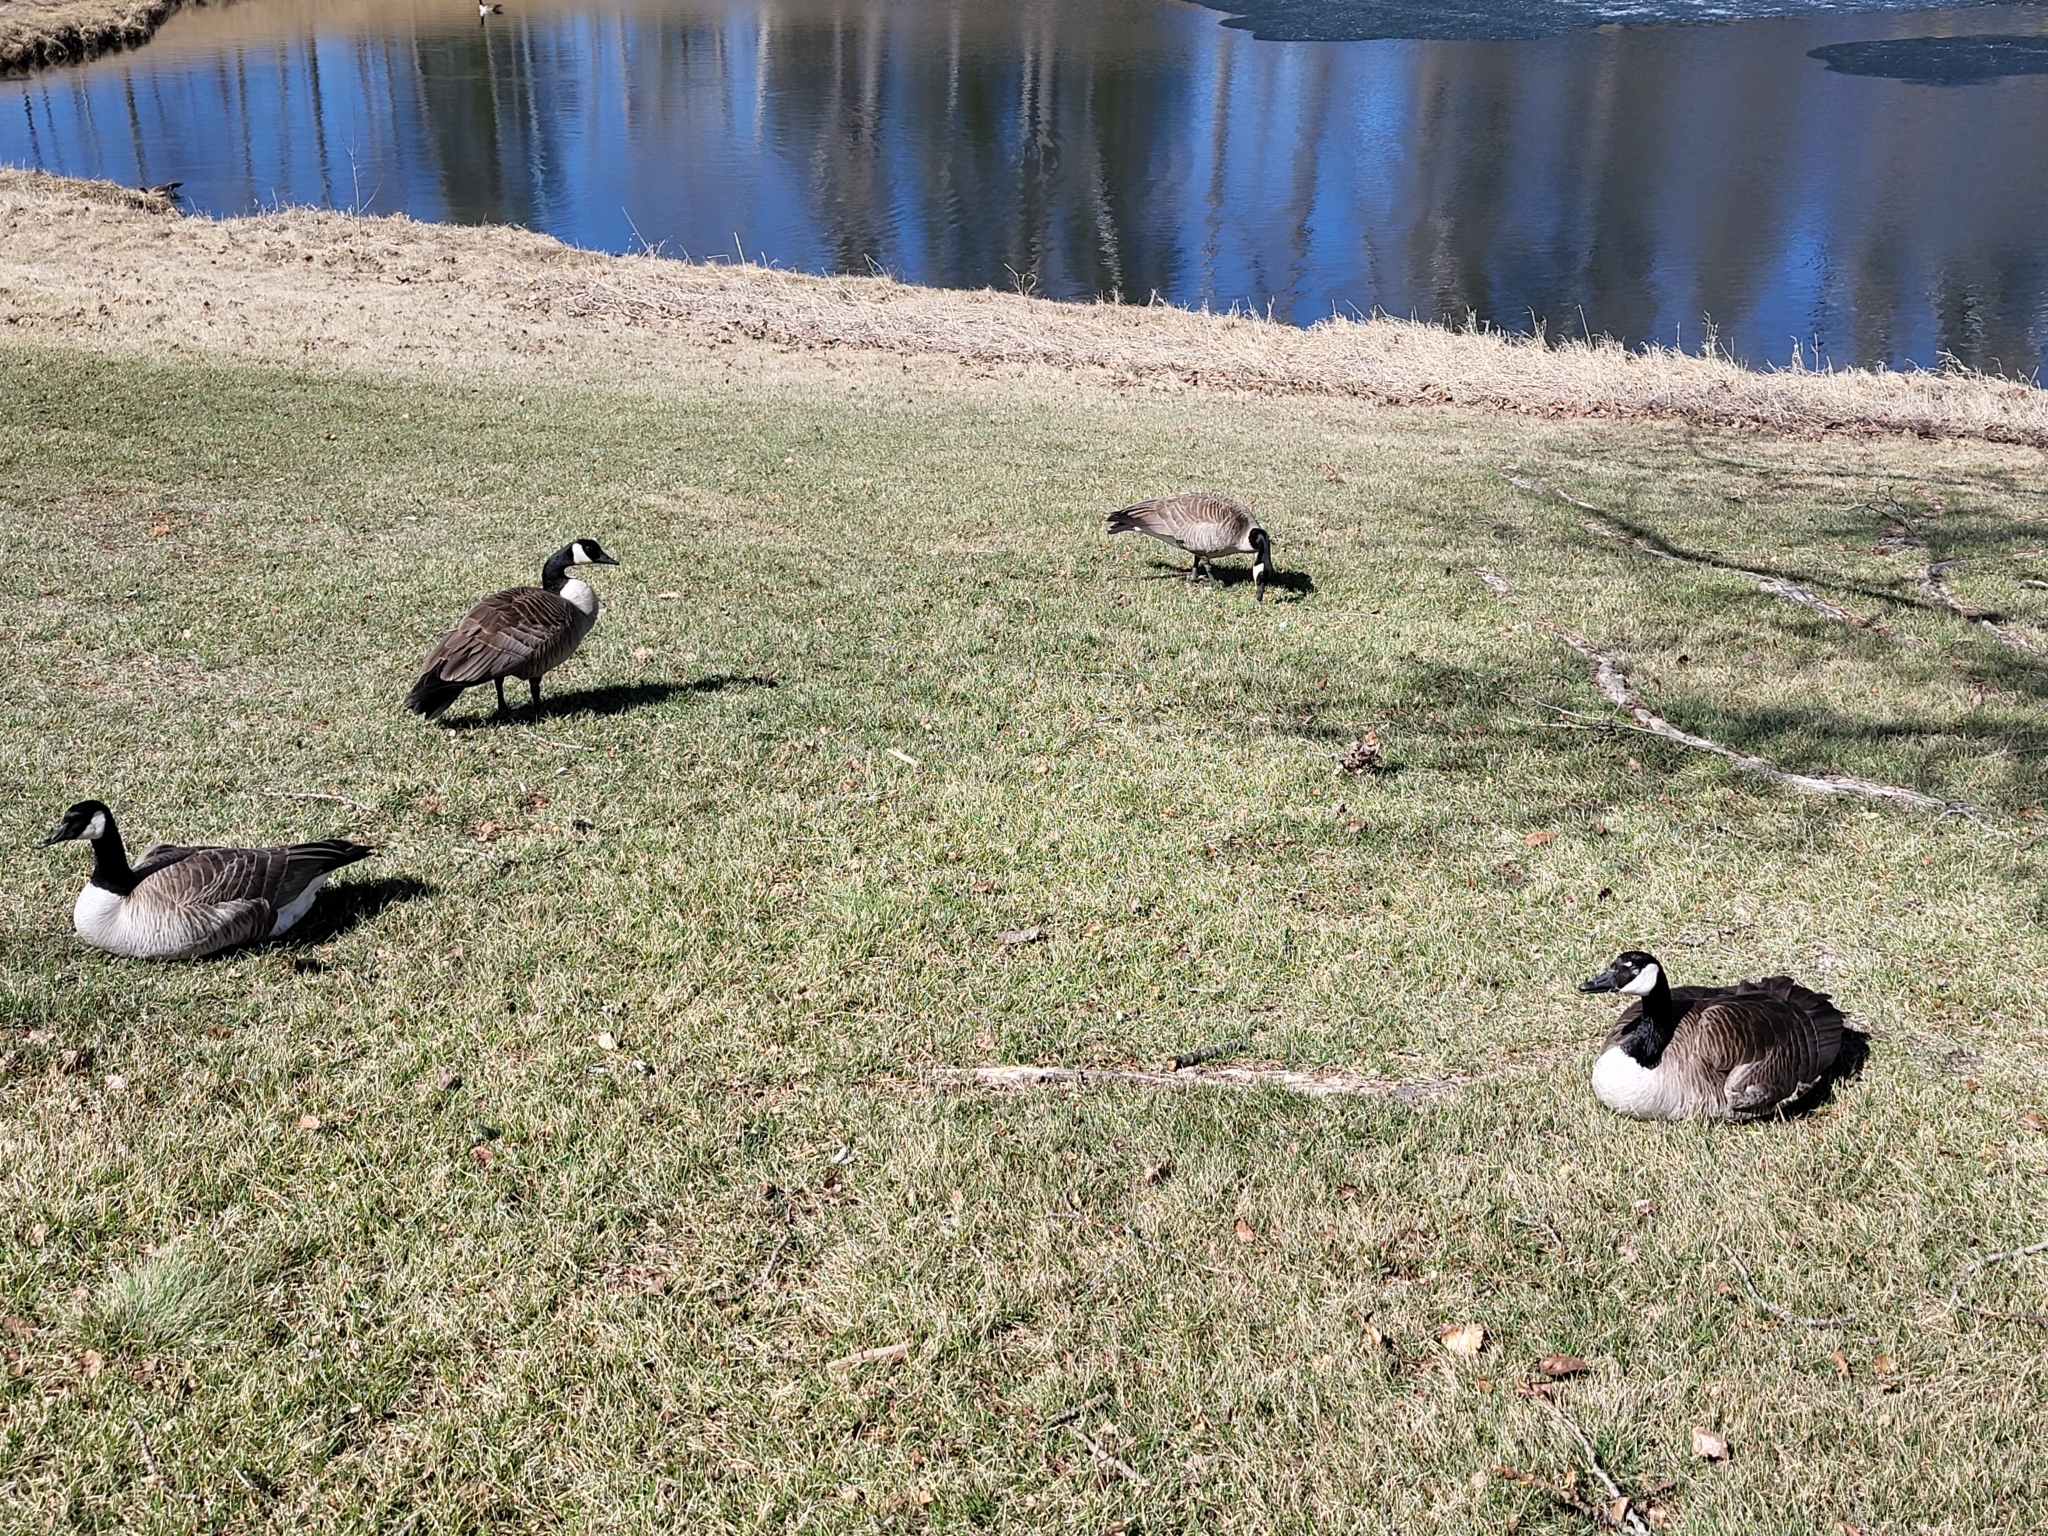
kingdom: Animalia
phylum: Chordata
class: Aves
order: Anseriformes
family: Anatidae
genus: Branta
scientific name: Branta canadensis
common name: Canada goose
